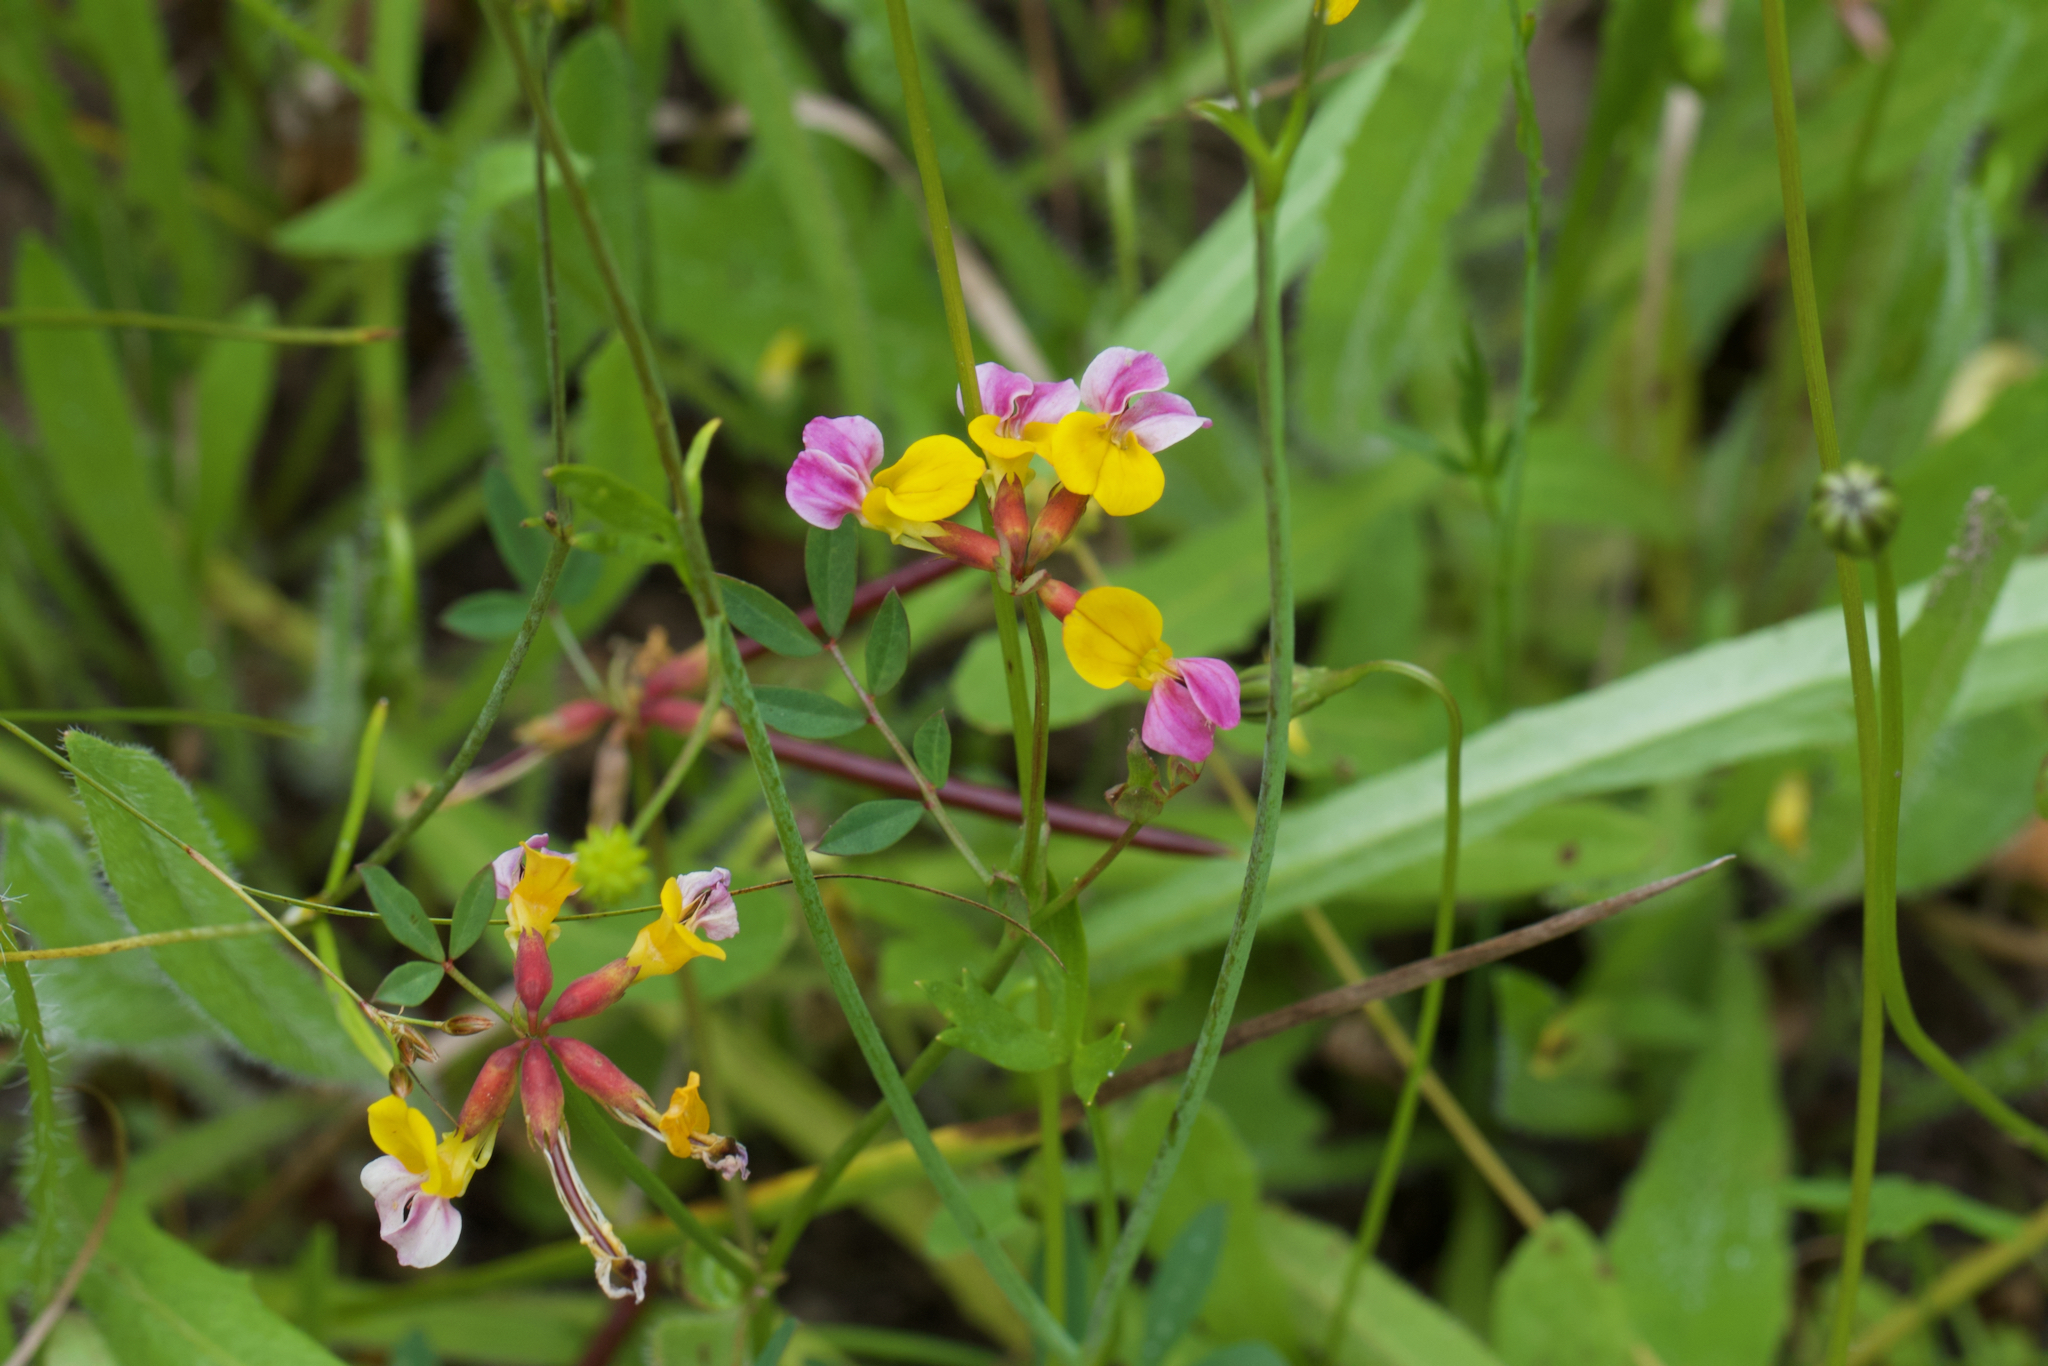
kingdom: Plantae
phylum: Tracheophyta
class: Magnoliopsida
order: Fabales
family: Fabaceae
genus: Hosackia
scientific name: Hosackia gracilis
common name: Seaside bird's-foot lotus
